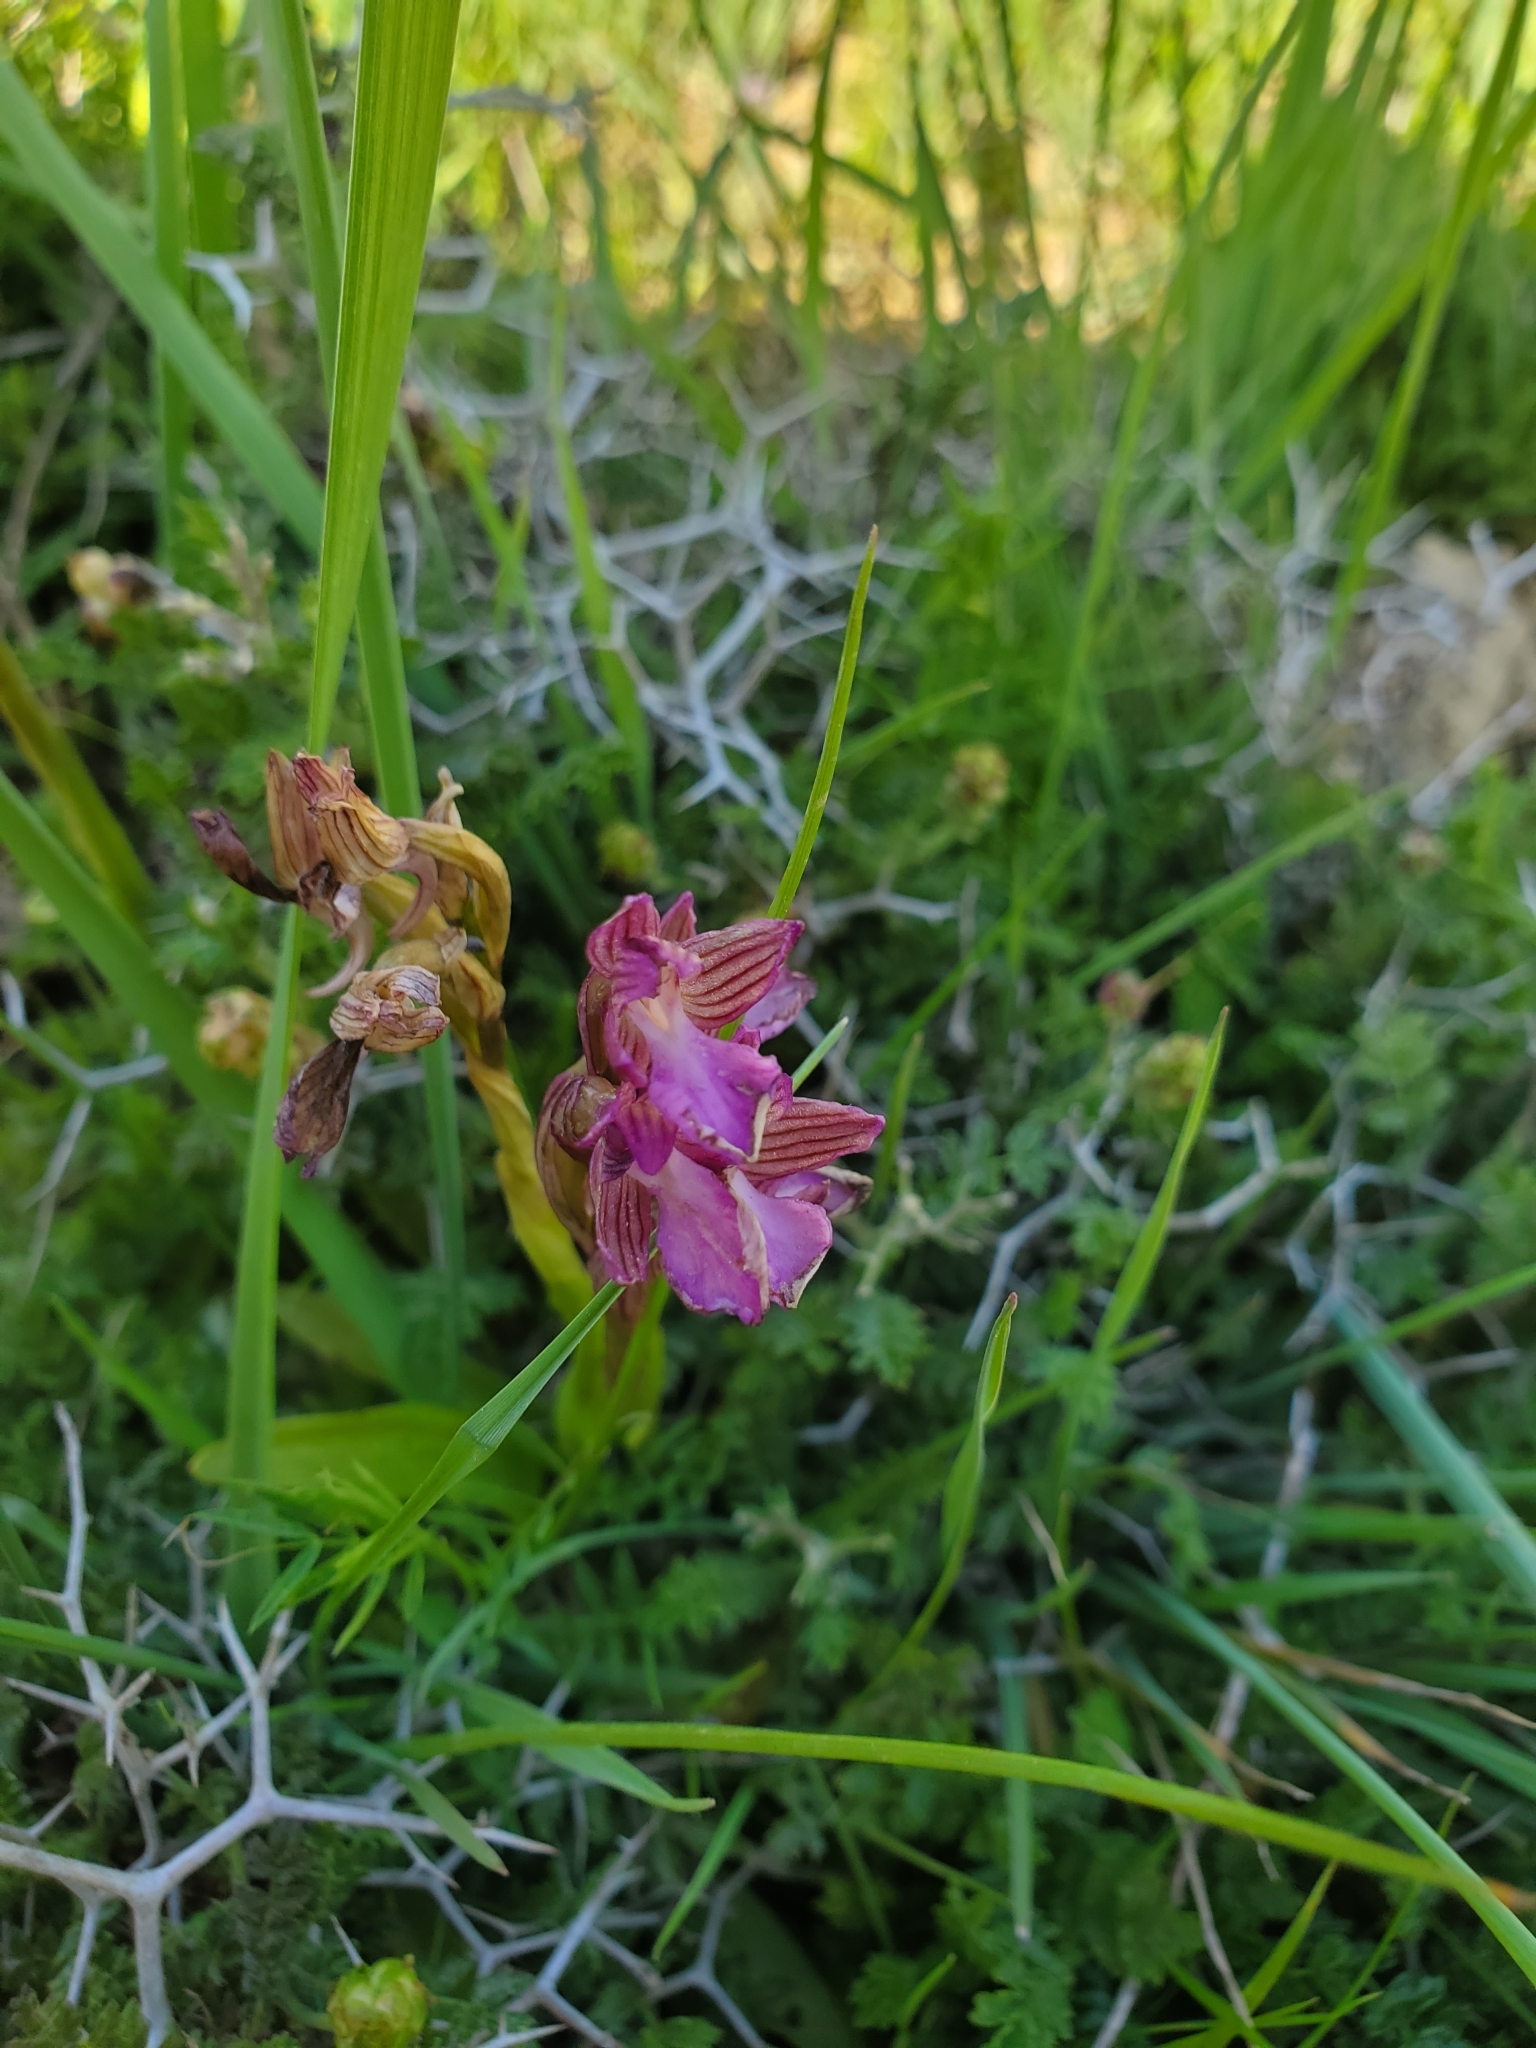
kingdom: Plantae
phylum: Tracheophyta
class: Liliopsida
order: Asparagales
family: Orchidaceae
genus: Anacamptis
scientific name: Anacamptis papilionacea
